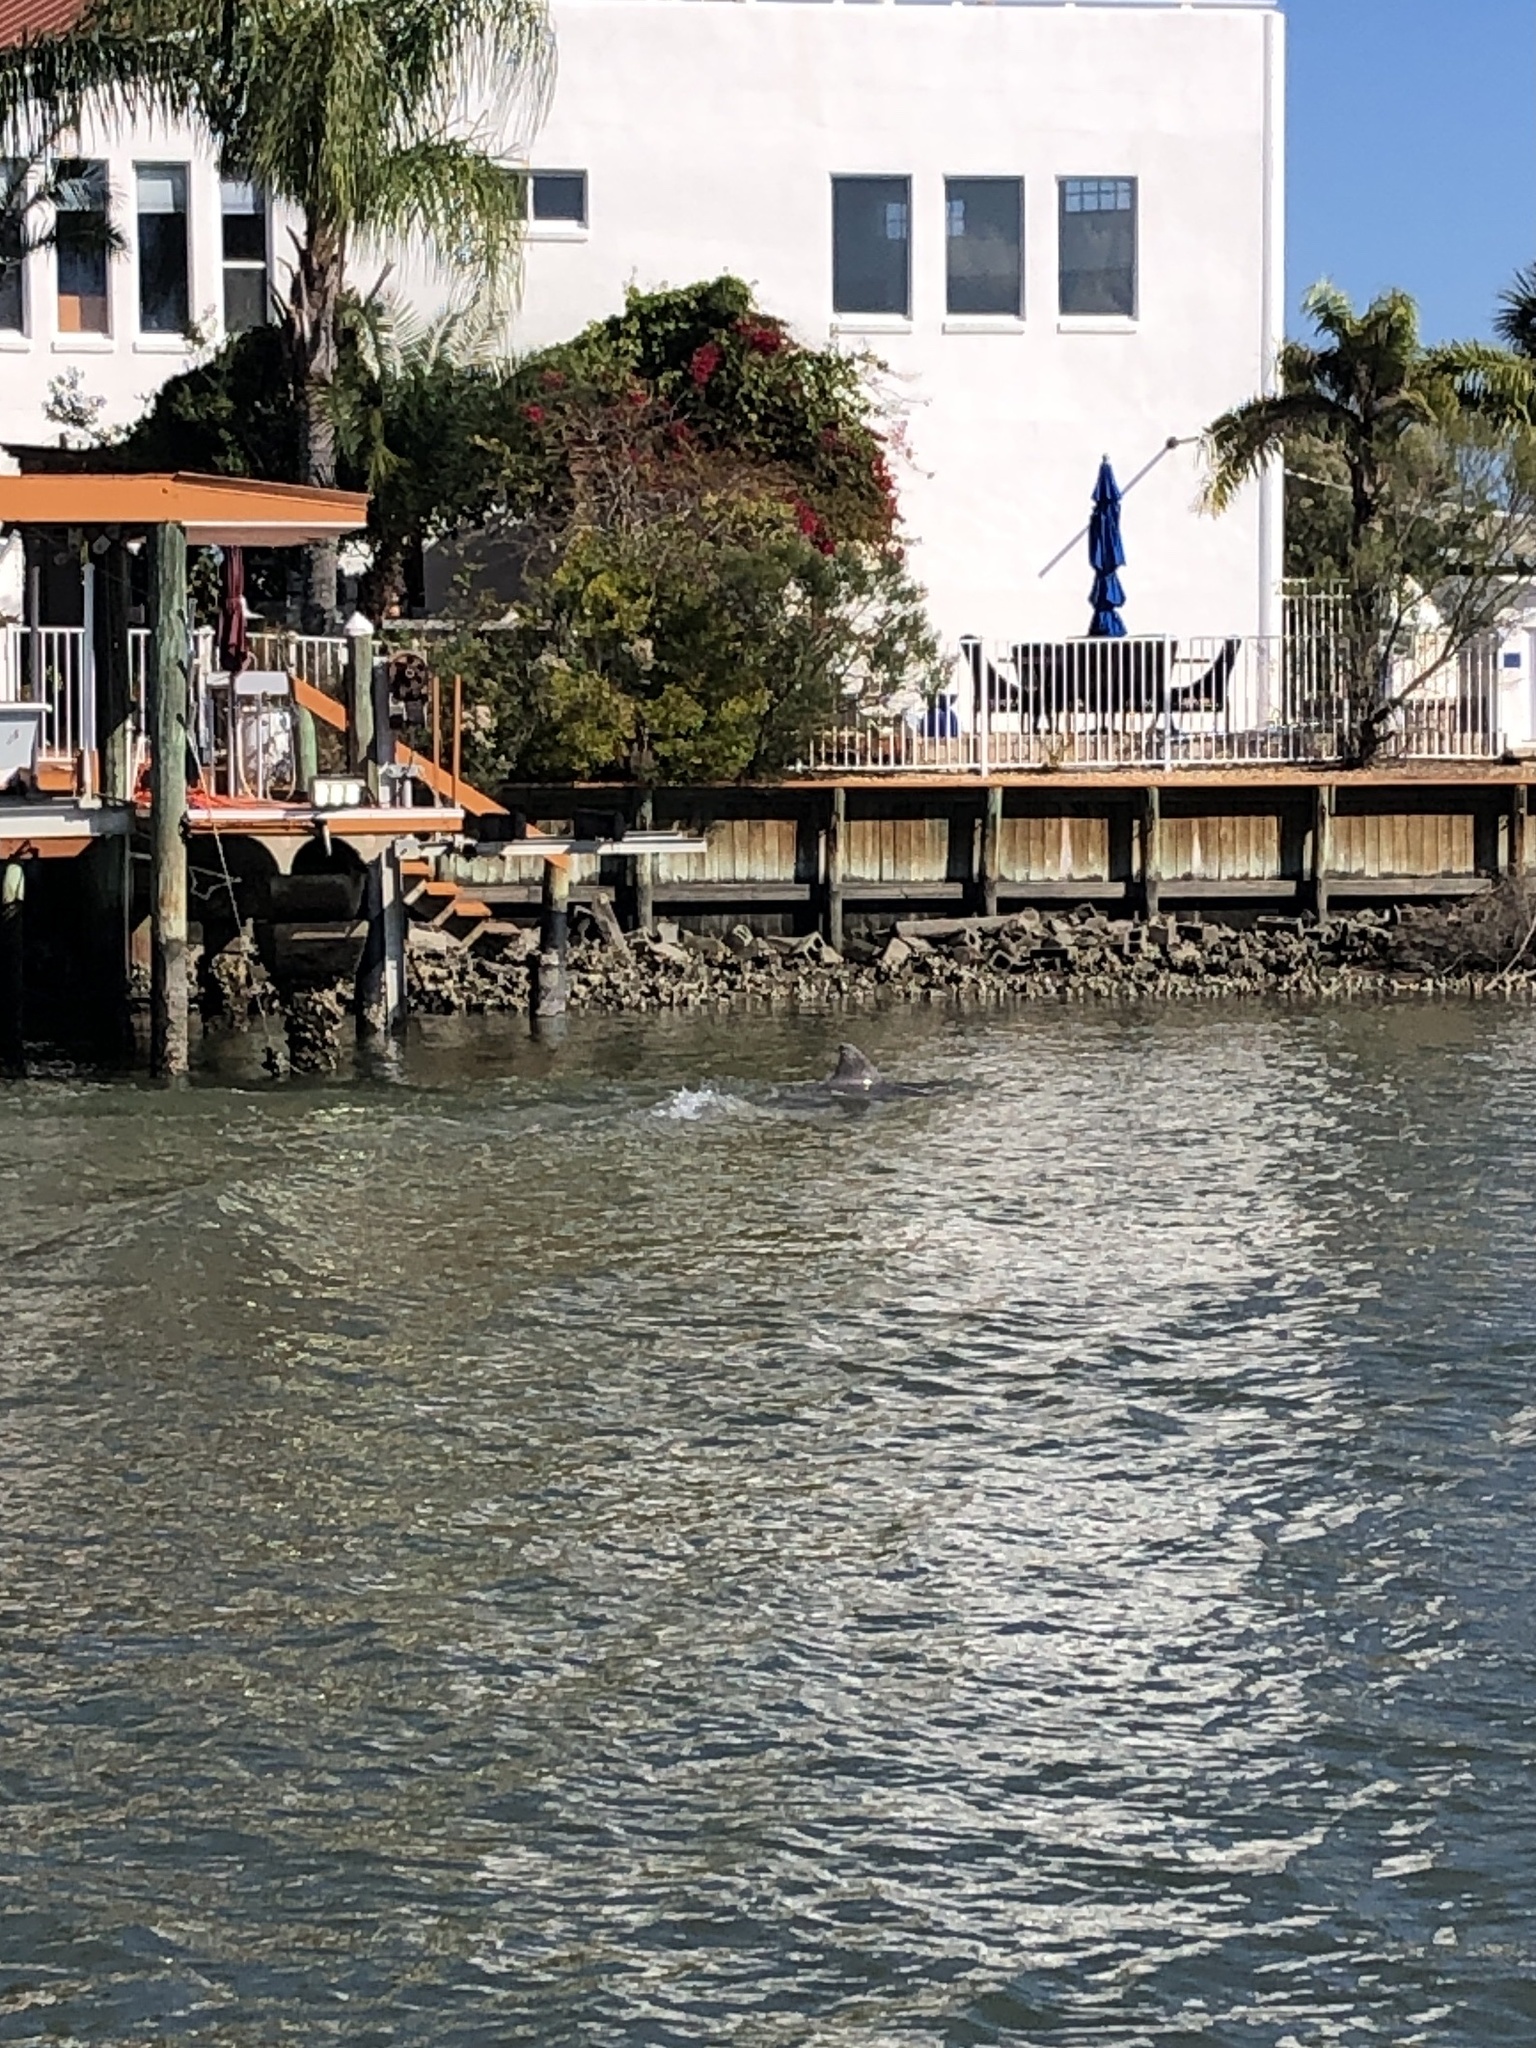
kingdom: Animalia
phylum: Chordata
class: Mammalia
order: Cetacea
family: Delphinidae
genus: Tursiops
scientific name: Tursiops truncatus
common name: Bottlenose dolphin
